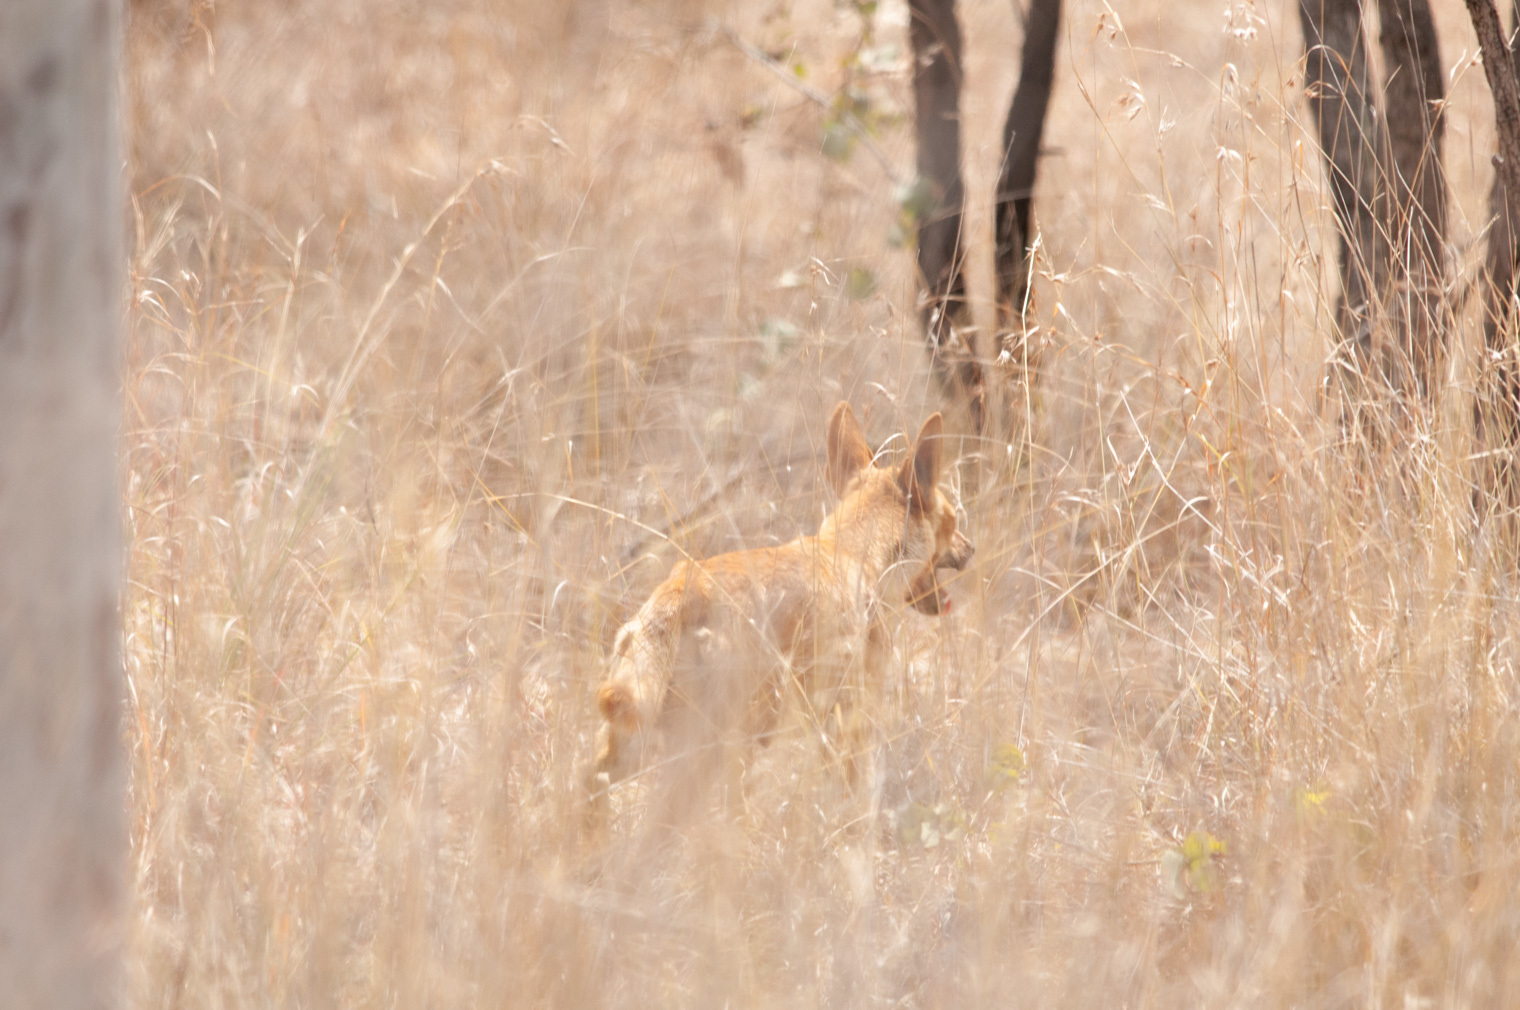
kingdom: Animalia
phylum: Chordata
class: Mammalia
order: Carnivora
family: Canidae
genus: Canis
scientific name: Canis lupus
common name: Gray wolf
